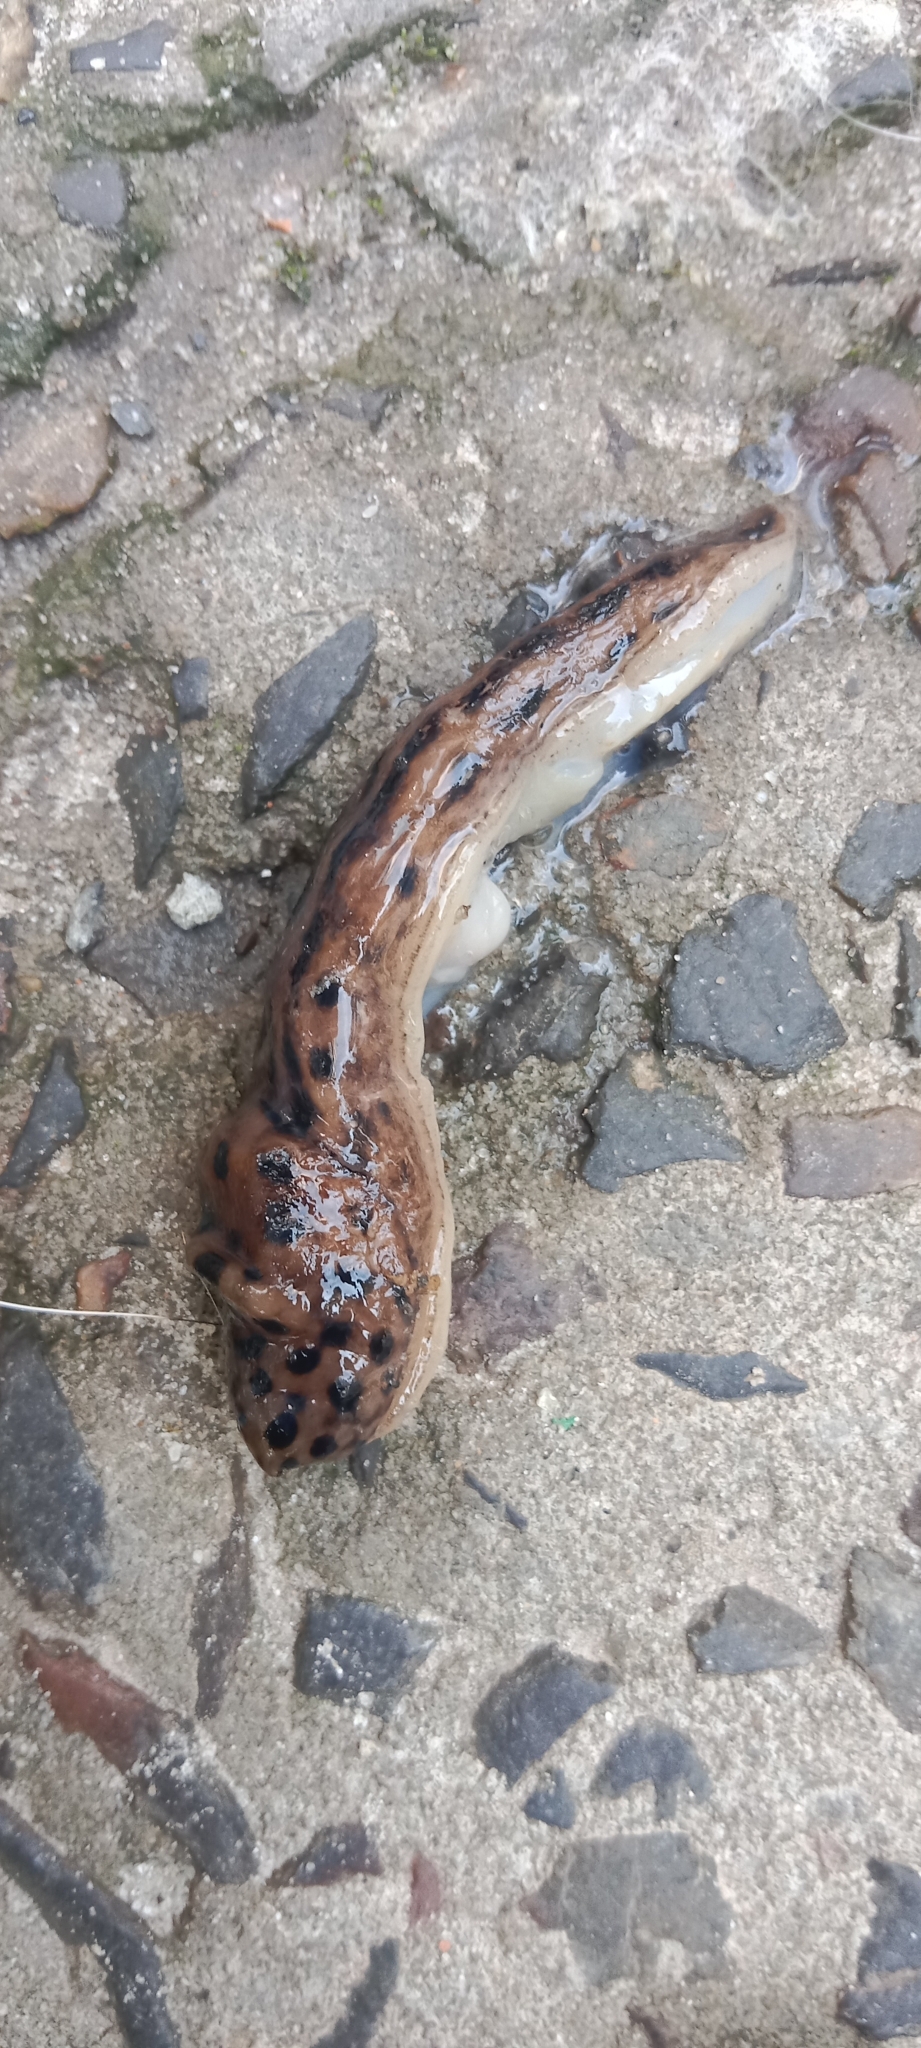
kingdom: Animalia
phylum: Mollusca
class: Gastropoda
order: Stylommatophora
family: Limacidae
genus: Limax
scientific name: Limax maximus
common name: Great grey slug
